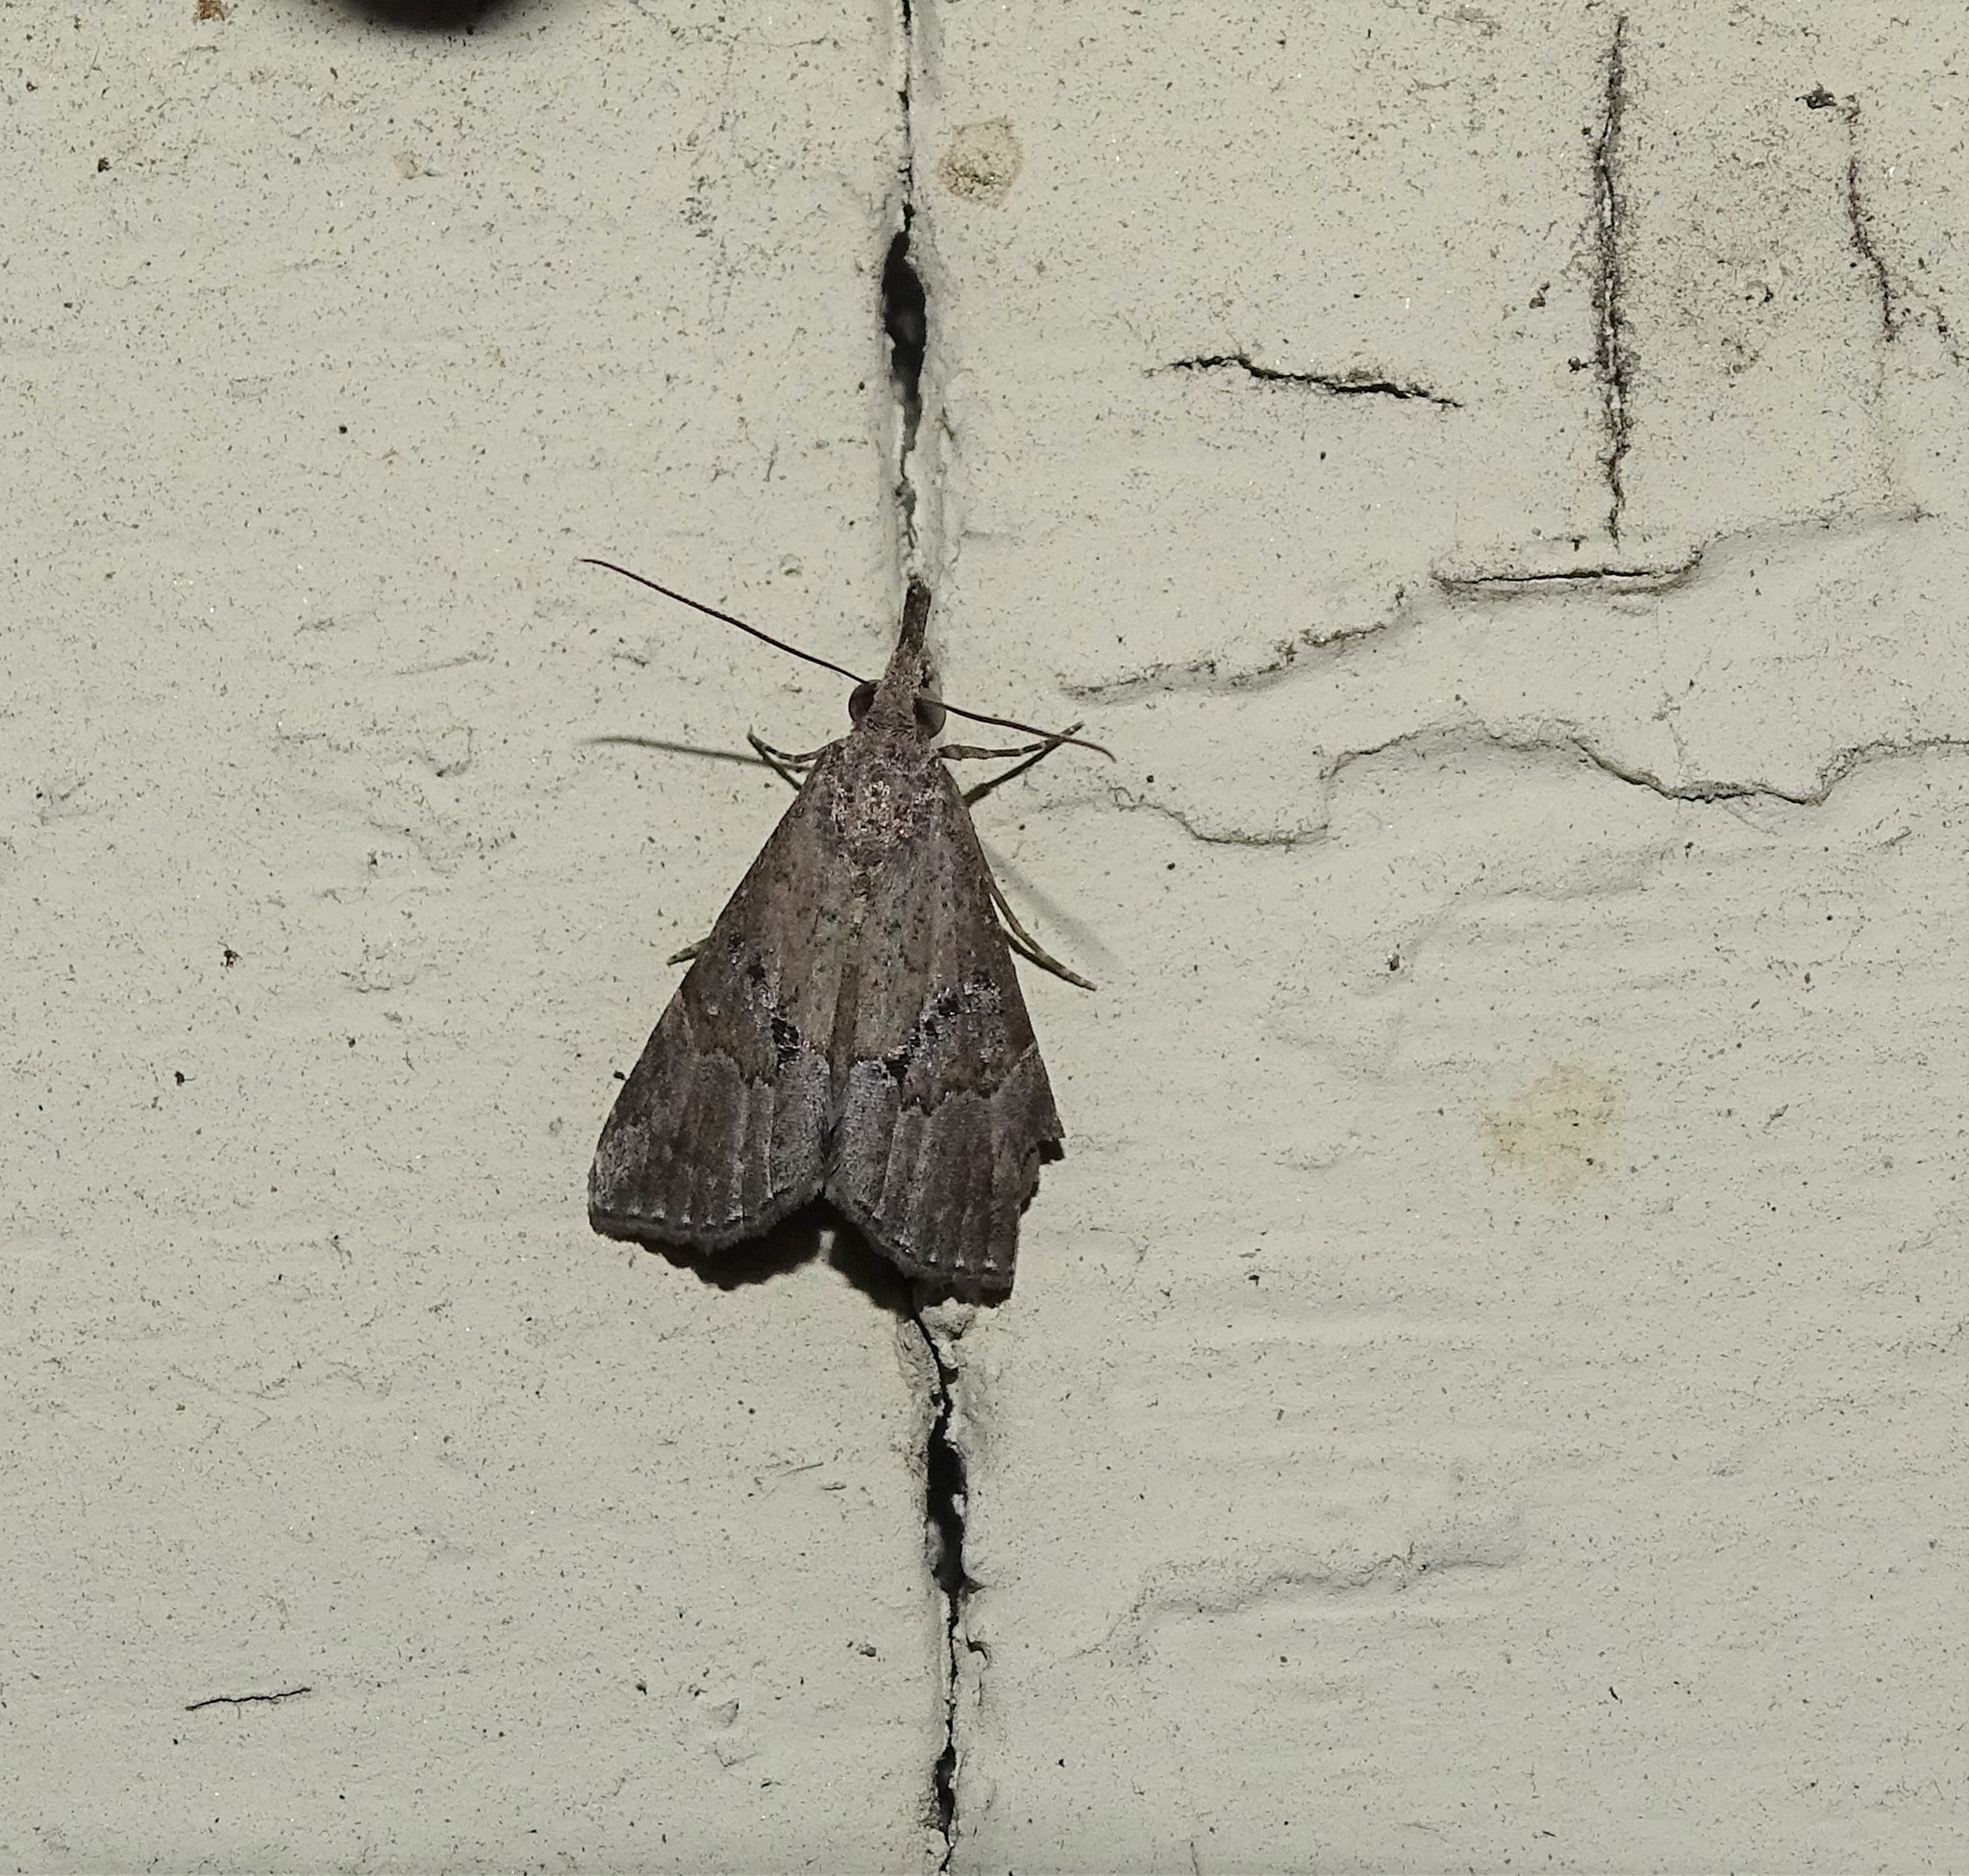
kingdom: Animalia
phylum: Arthropoda
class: Insecta
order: Lepidoptera
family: Erebidae
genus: Hypena
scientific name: Hypena minualis
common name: Sooty snout
